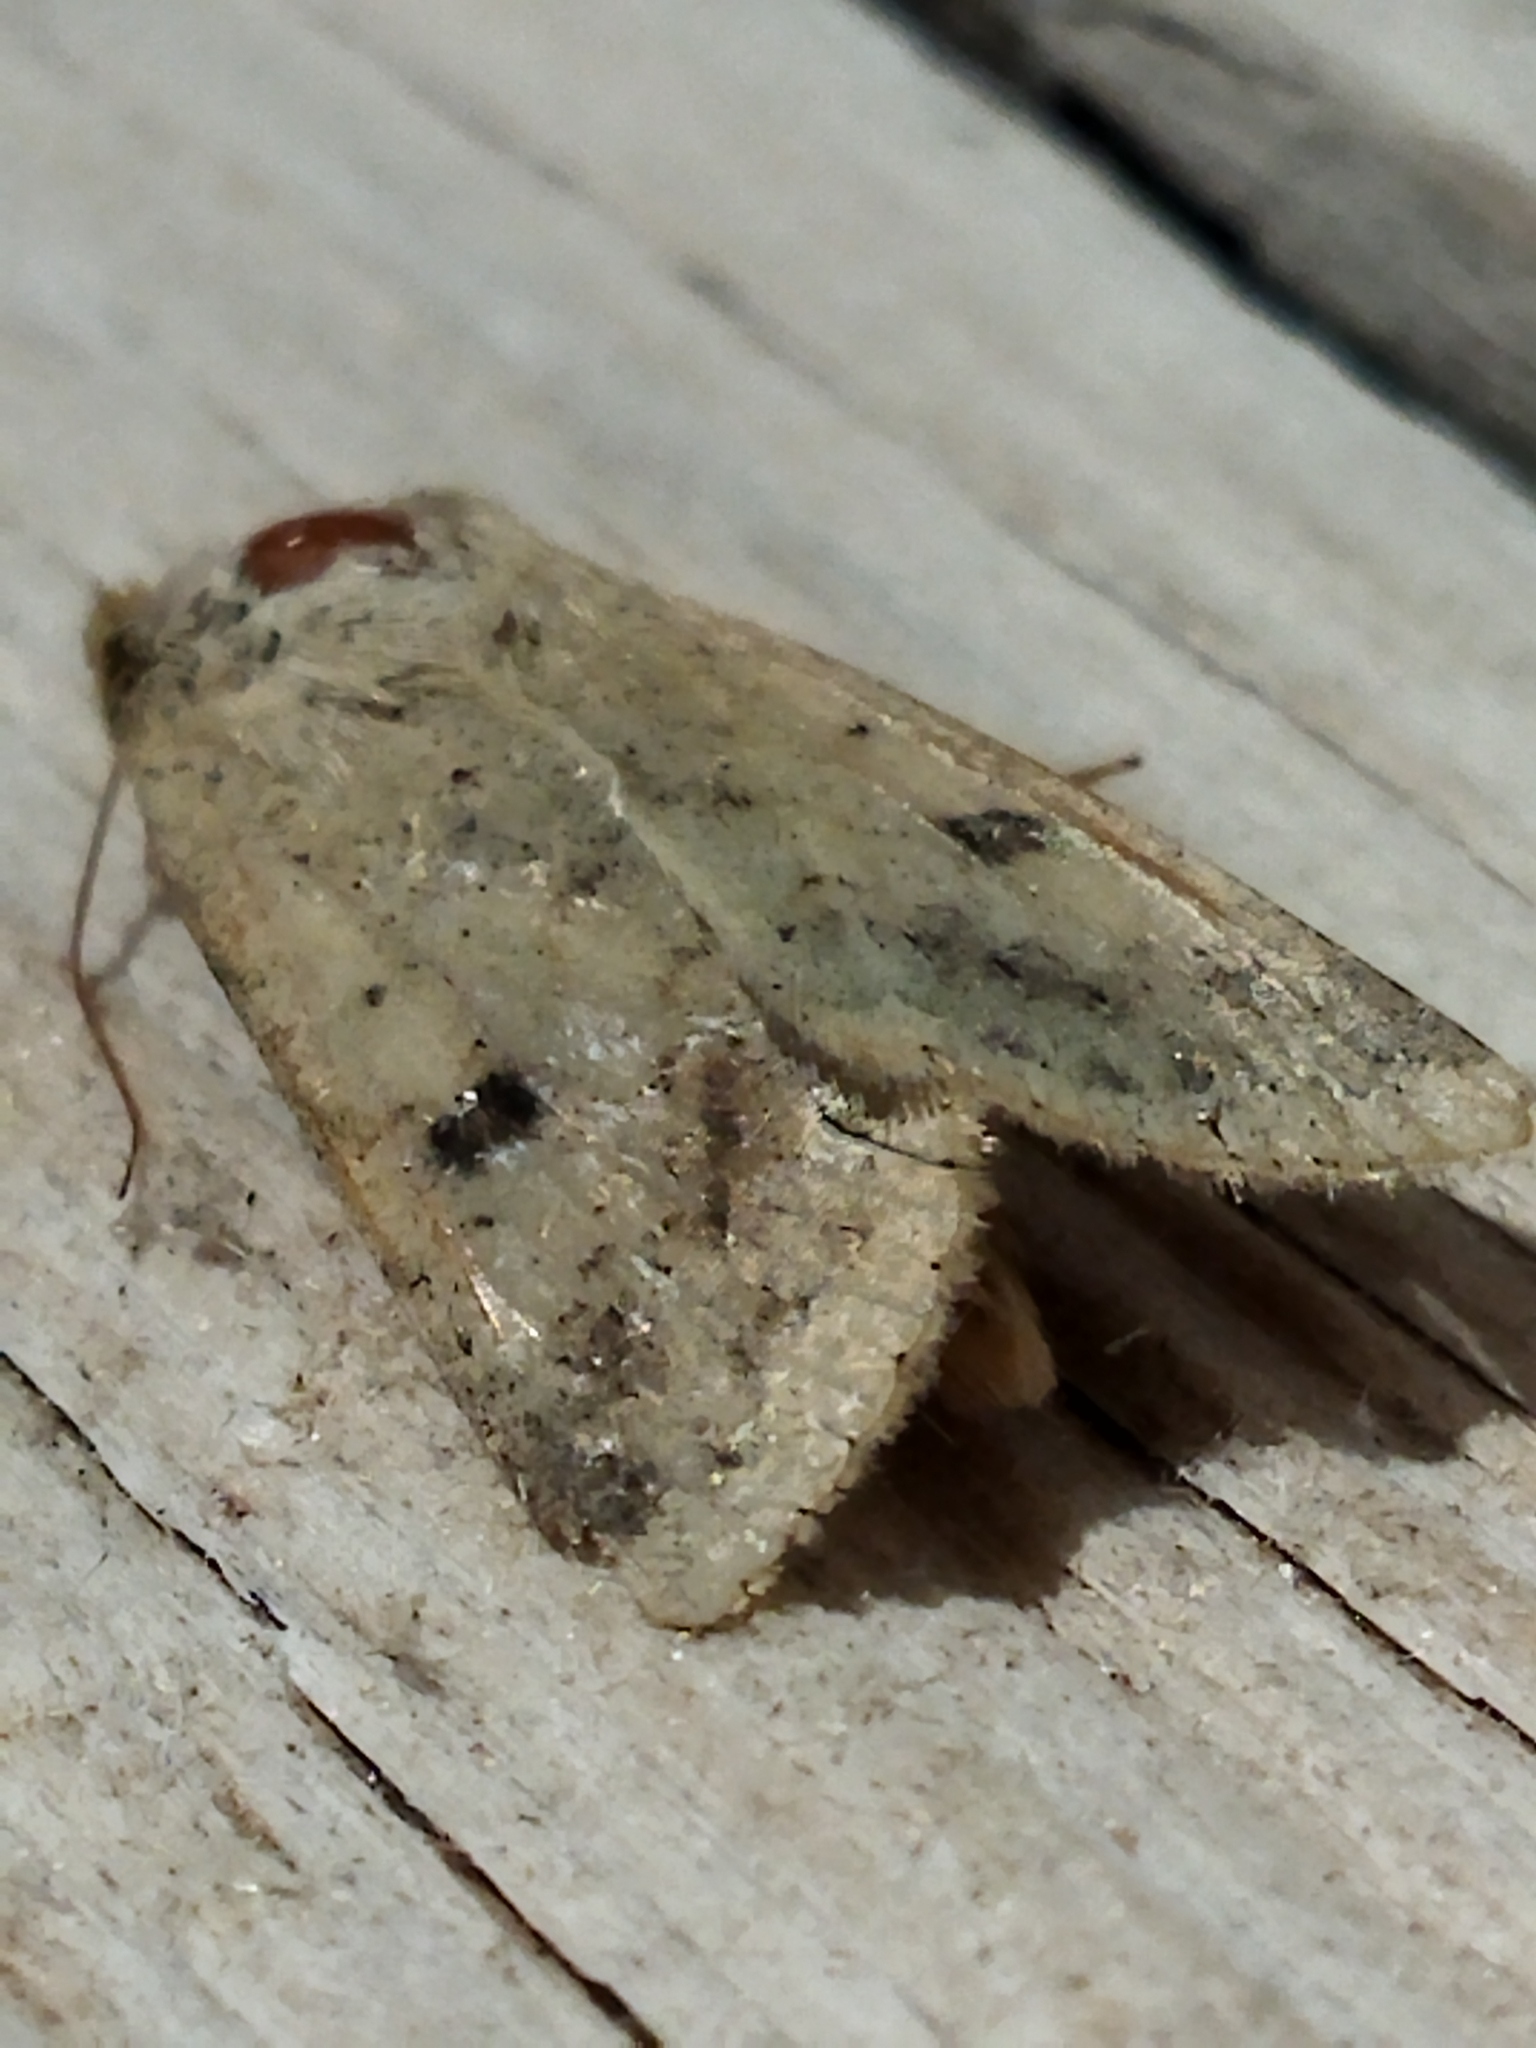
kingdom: Animalia
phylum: Arthropoda
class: Insecta
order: Lepidoptera
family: Noctuidae
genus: Helicoverpa
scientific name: Helicoverpa armigera
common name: Cotton bollworm
